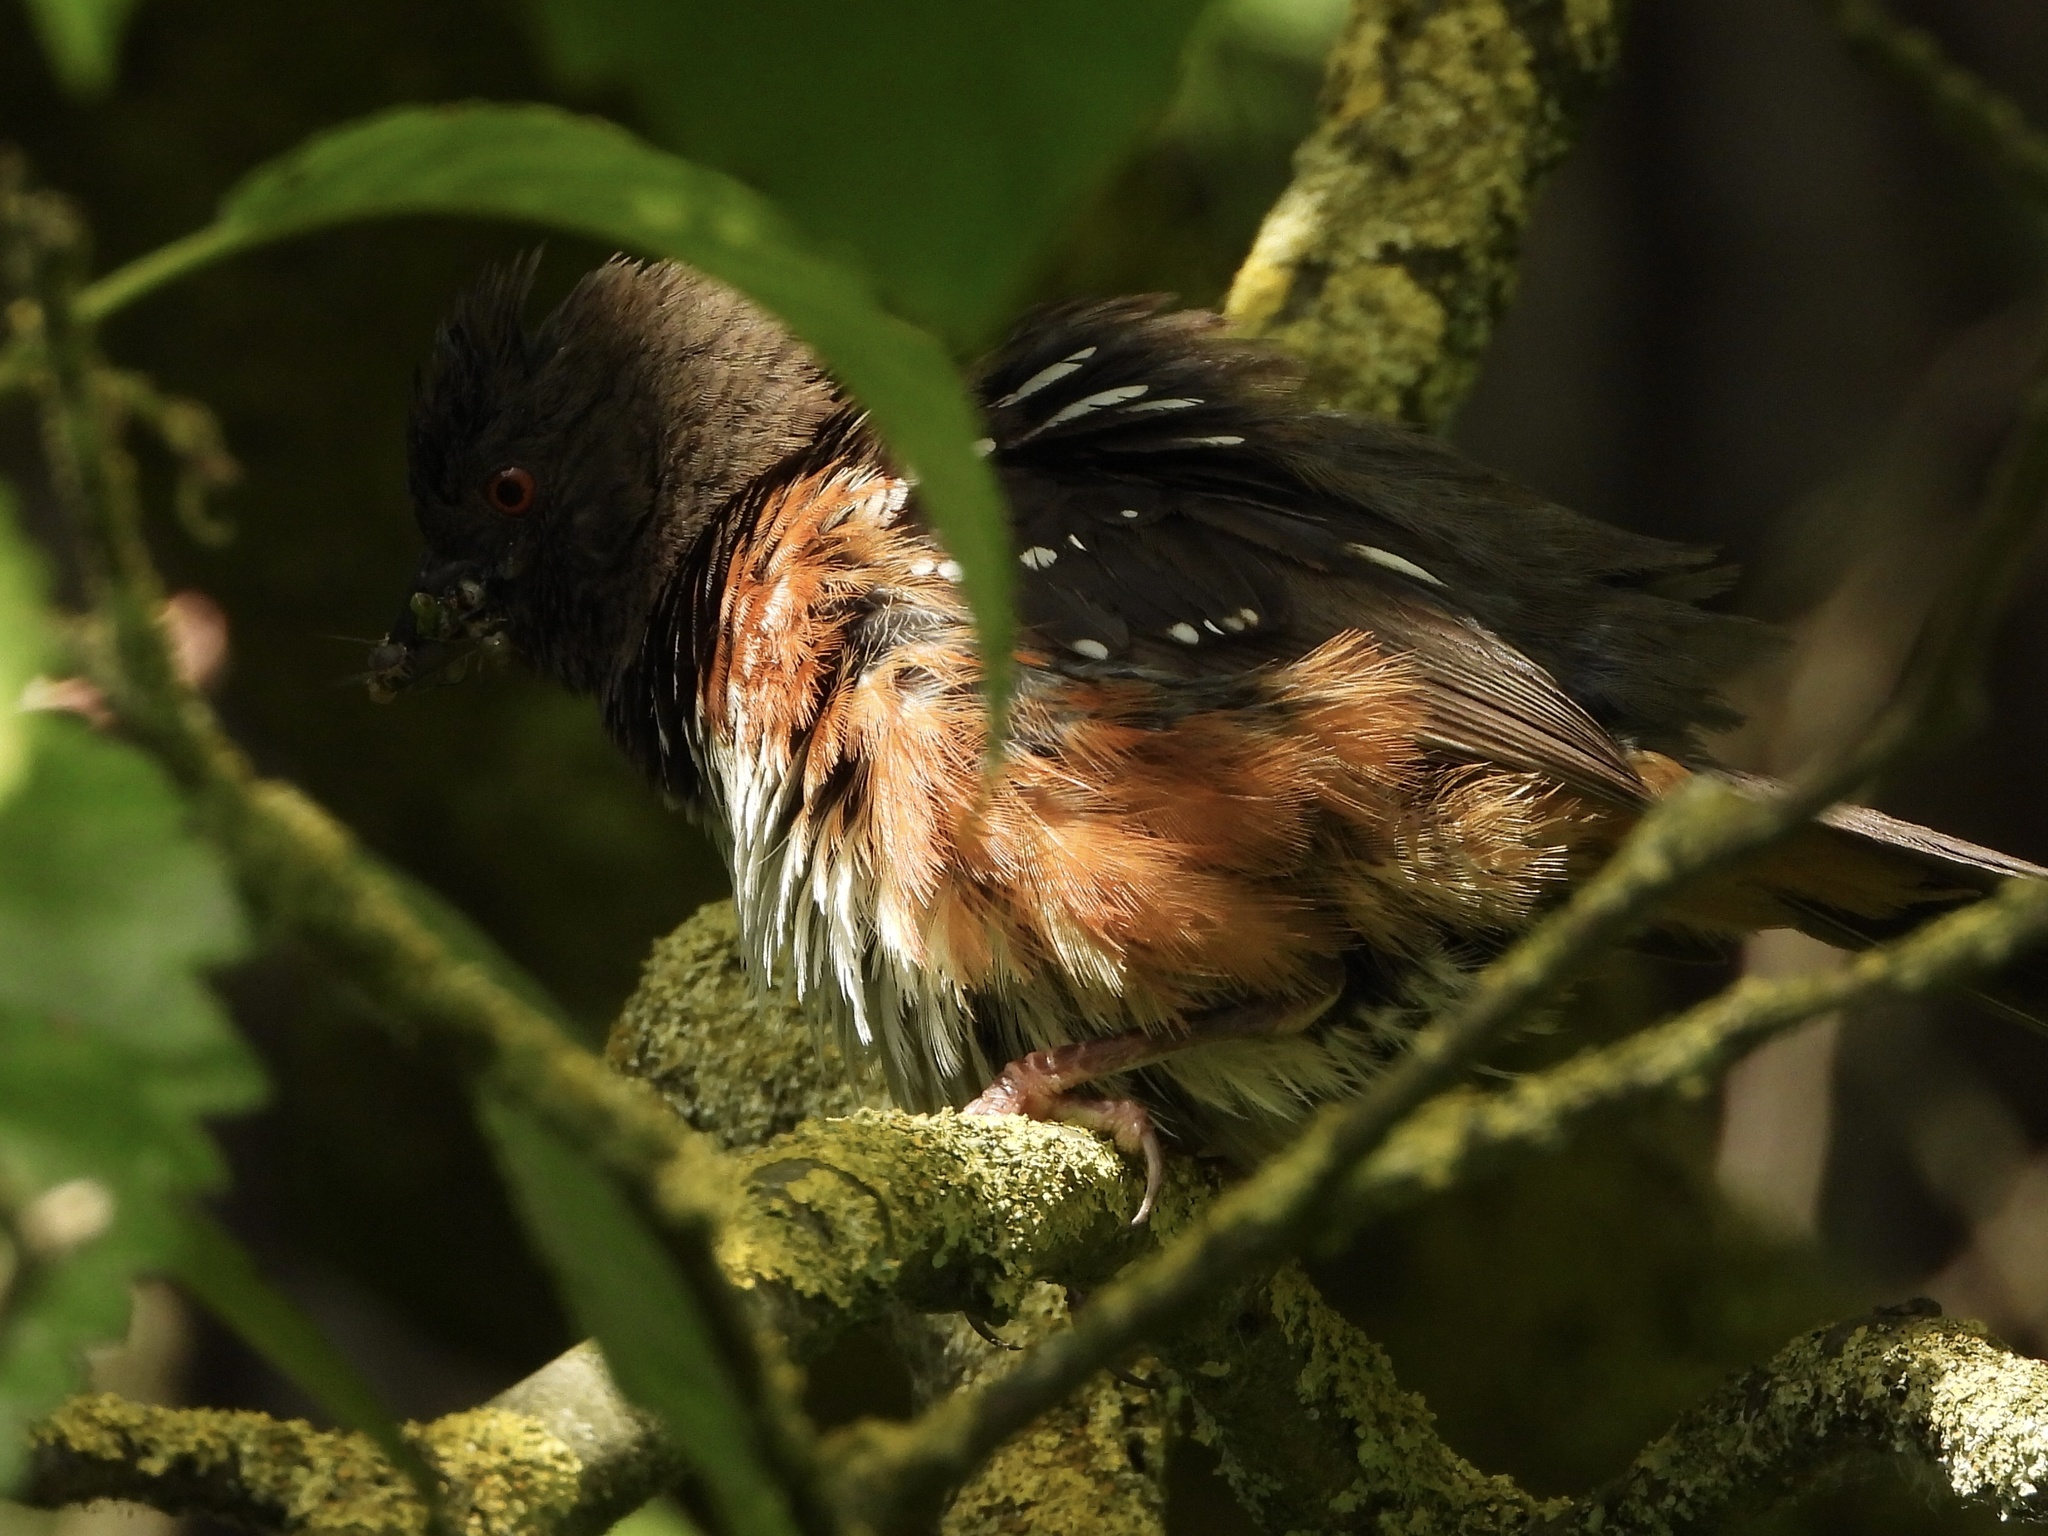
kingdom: Animalia
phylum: Chordata
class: Aves
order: Passeriformes
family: Passerellidae
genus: Pipilo
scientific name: Pipilo maculatus
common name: Spotted towhee
